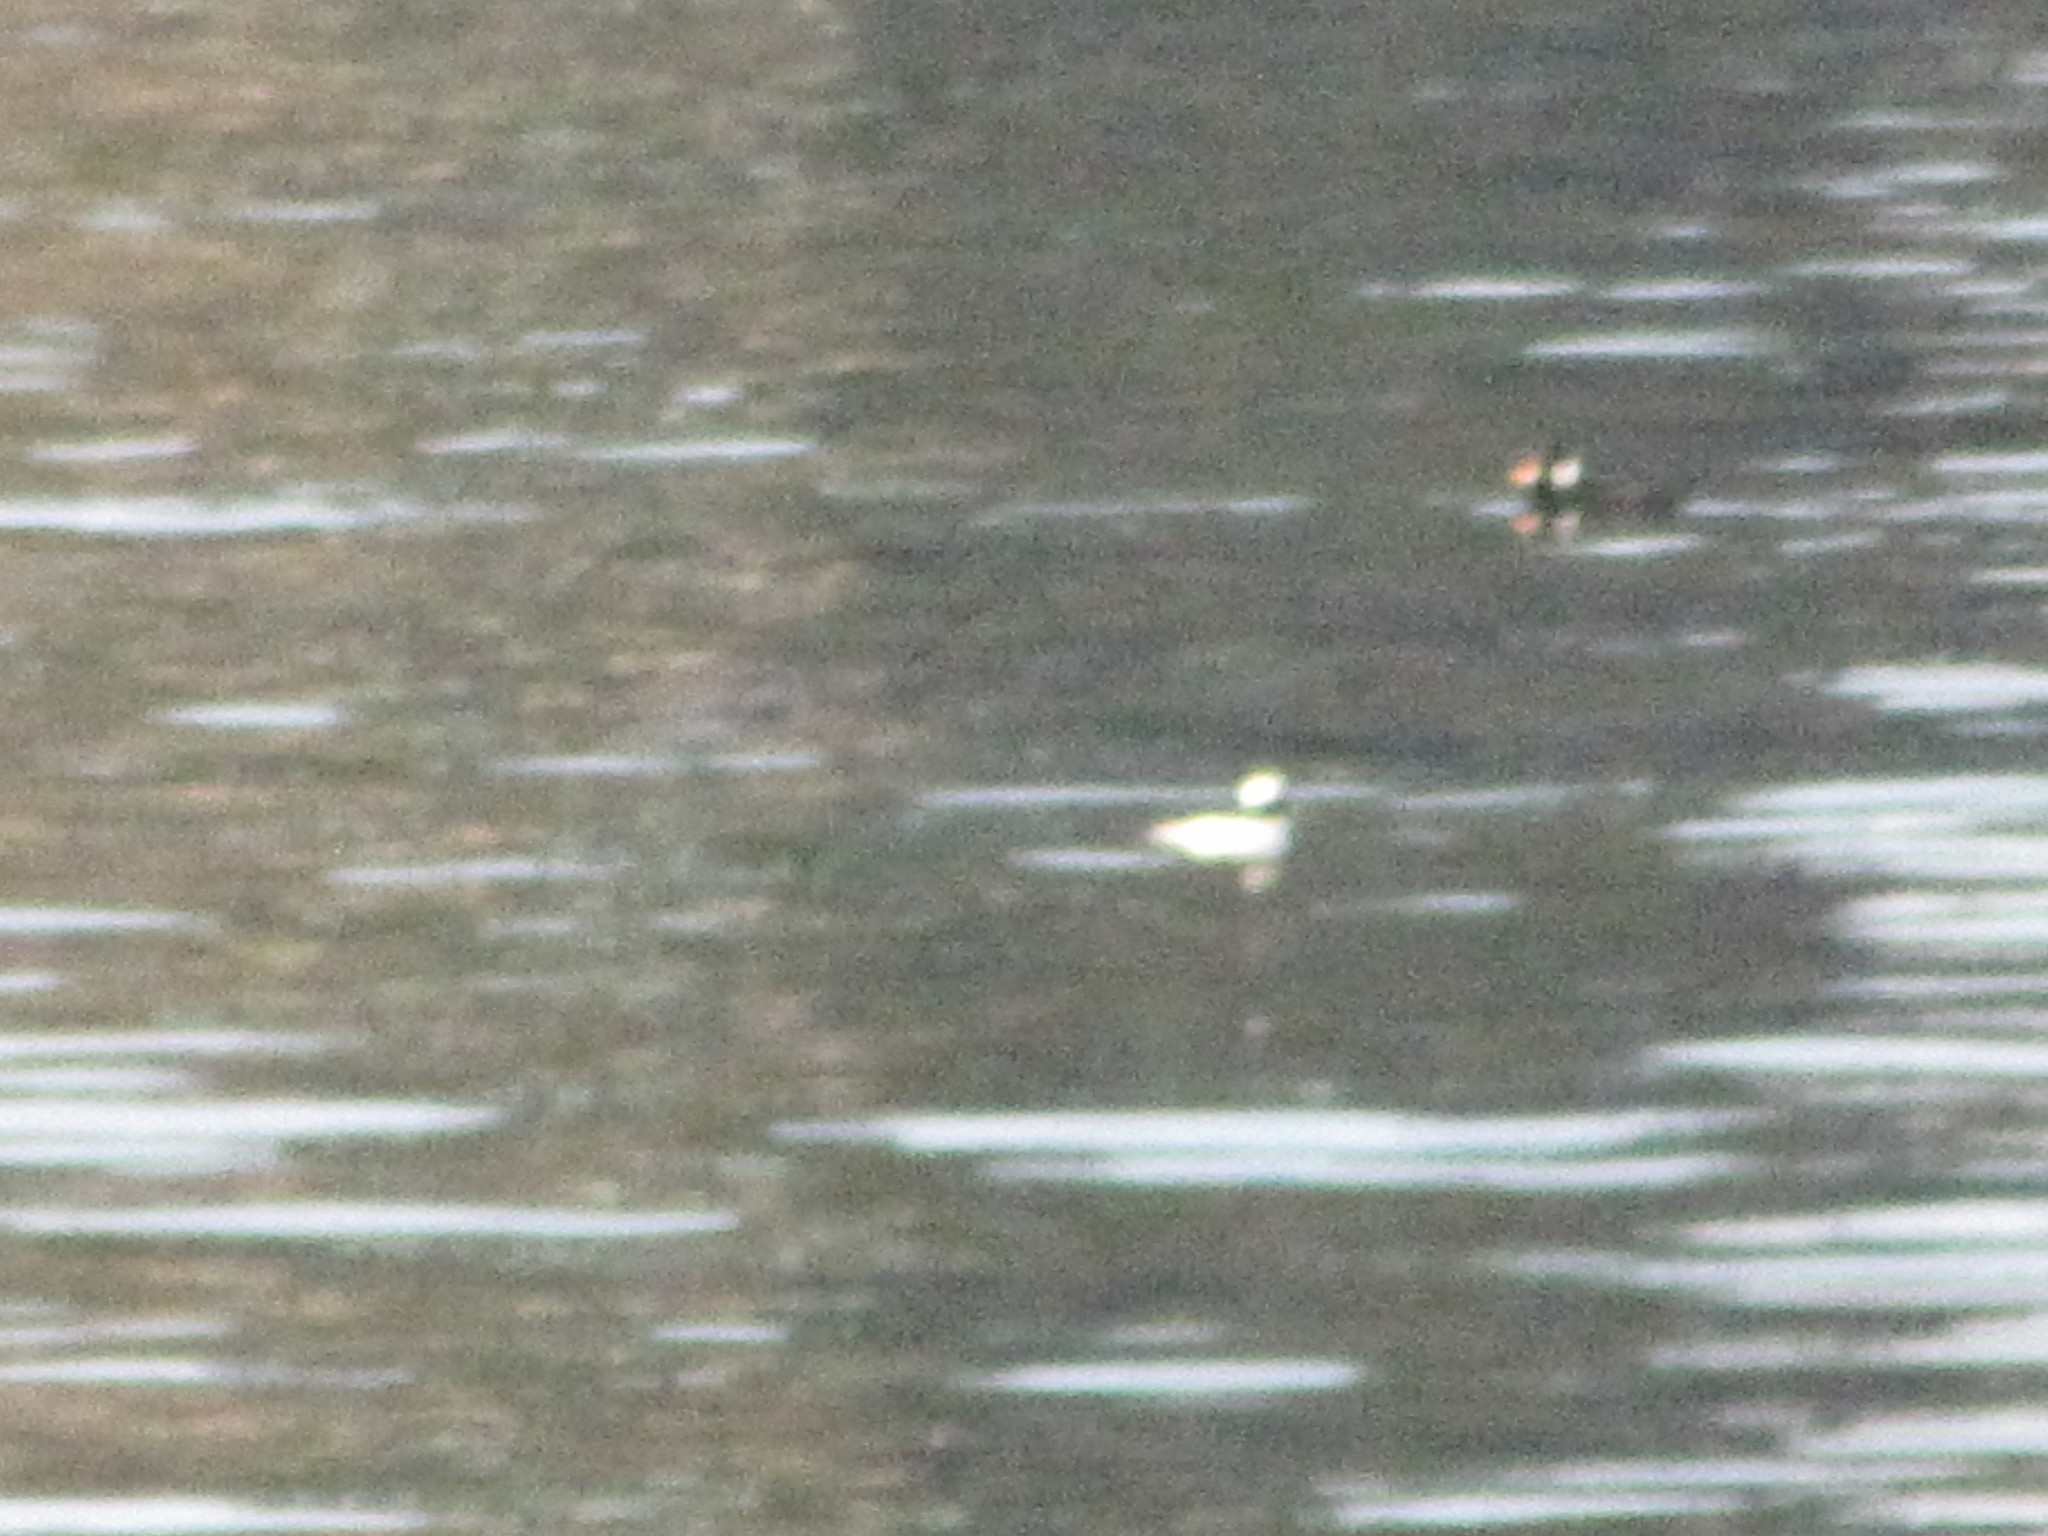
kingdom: Animalia
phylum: Chordata
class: Aves
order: Anseriformes
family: Anatidae
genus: Bucephala
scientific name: Bucephala albeola
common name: Bufflehead
